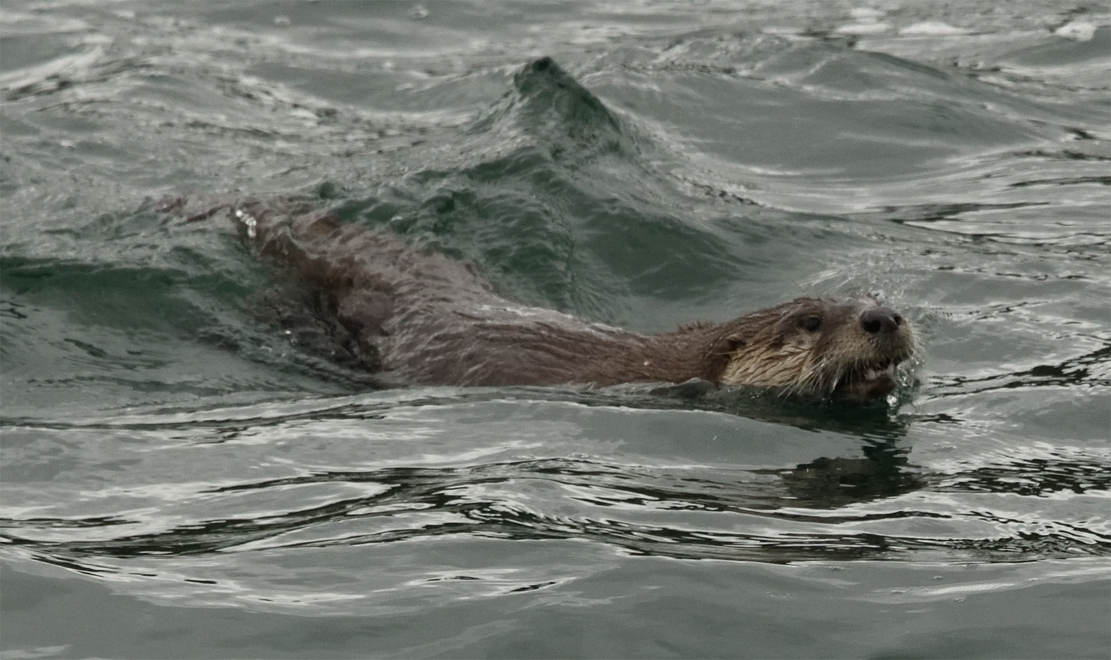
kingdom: Animalia
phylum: Chordata
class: Mammalia
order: Carnivora
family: Mustelidae
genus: Lontra
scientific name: Lontra canadensis
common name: North american river otter
